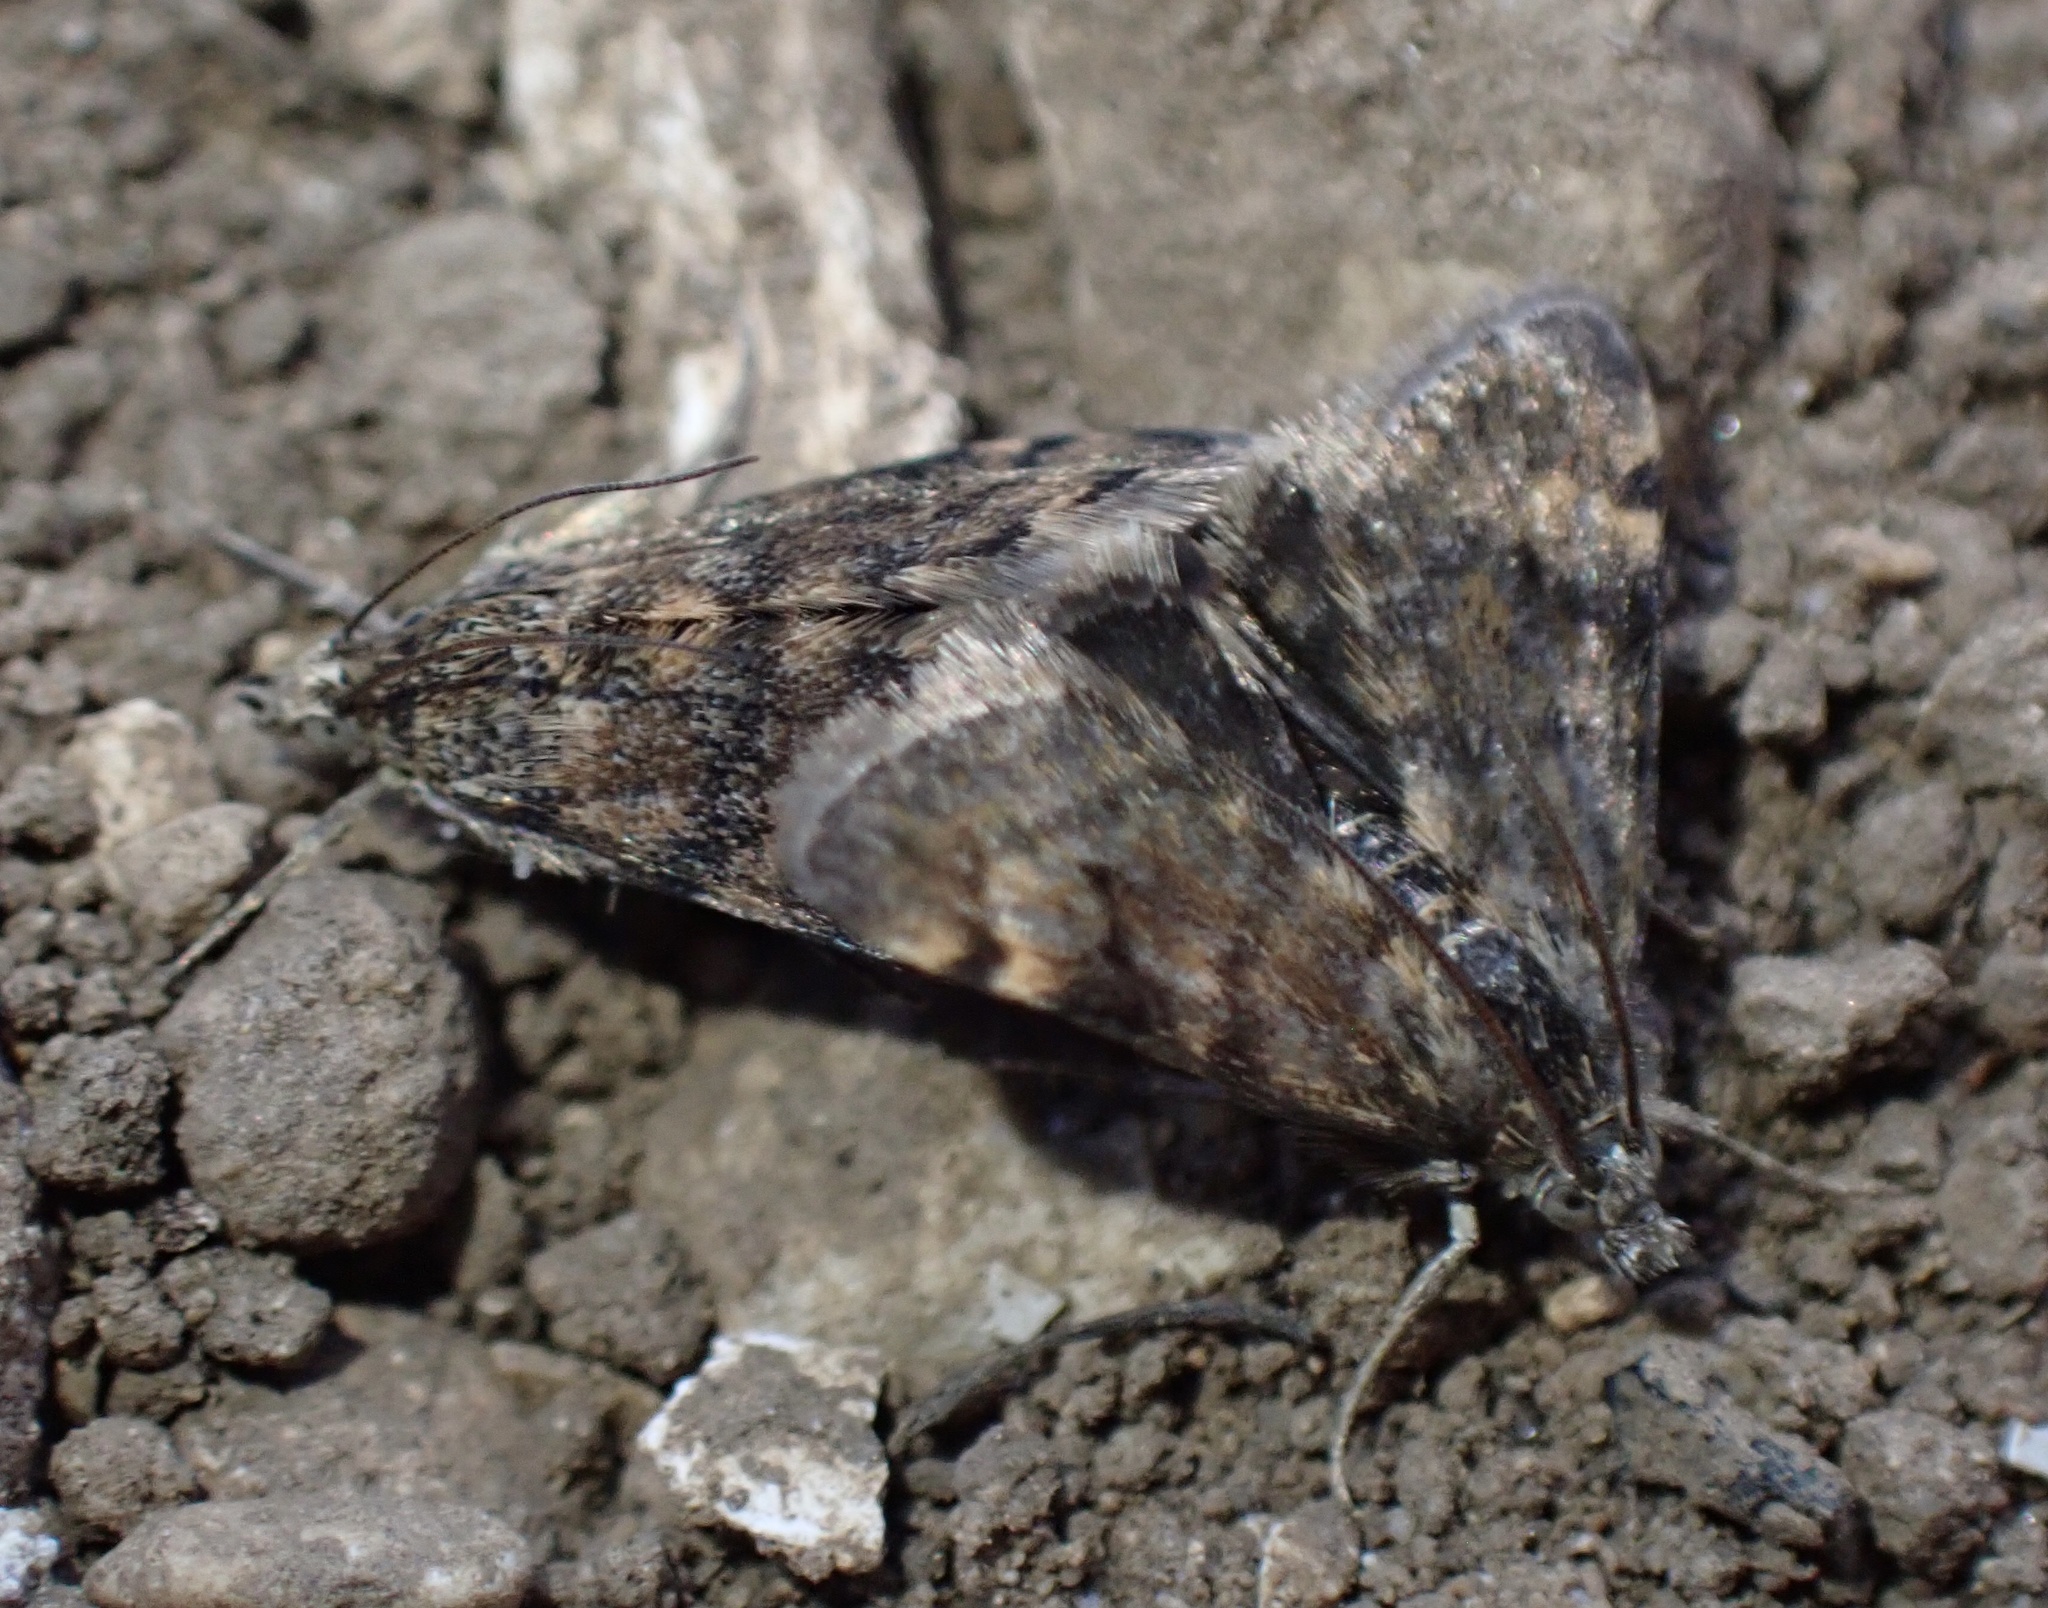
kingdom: Animalia
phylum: Arthropoda
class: Insecta
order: Lepidoptera
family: Crambidae
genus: Noctuelia
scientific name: Noctuelia Aporodes floralis
